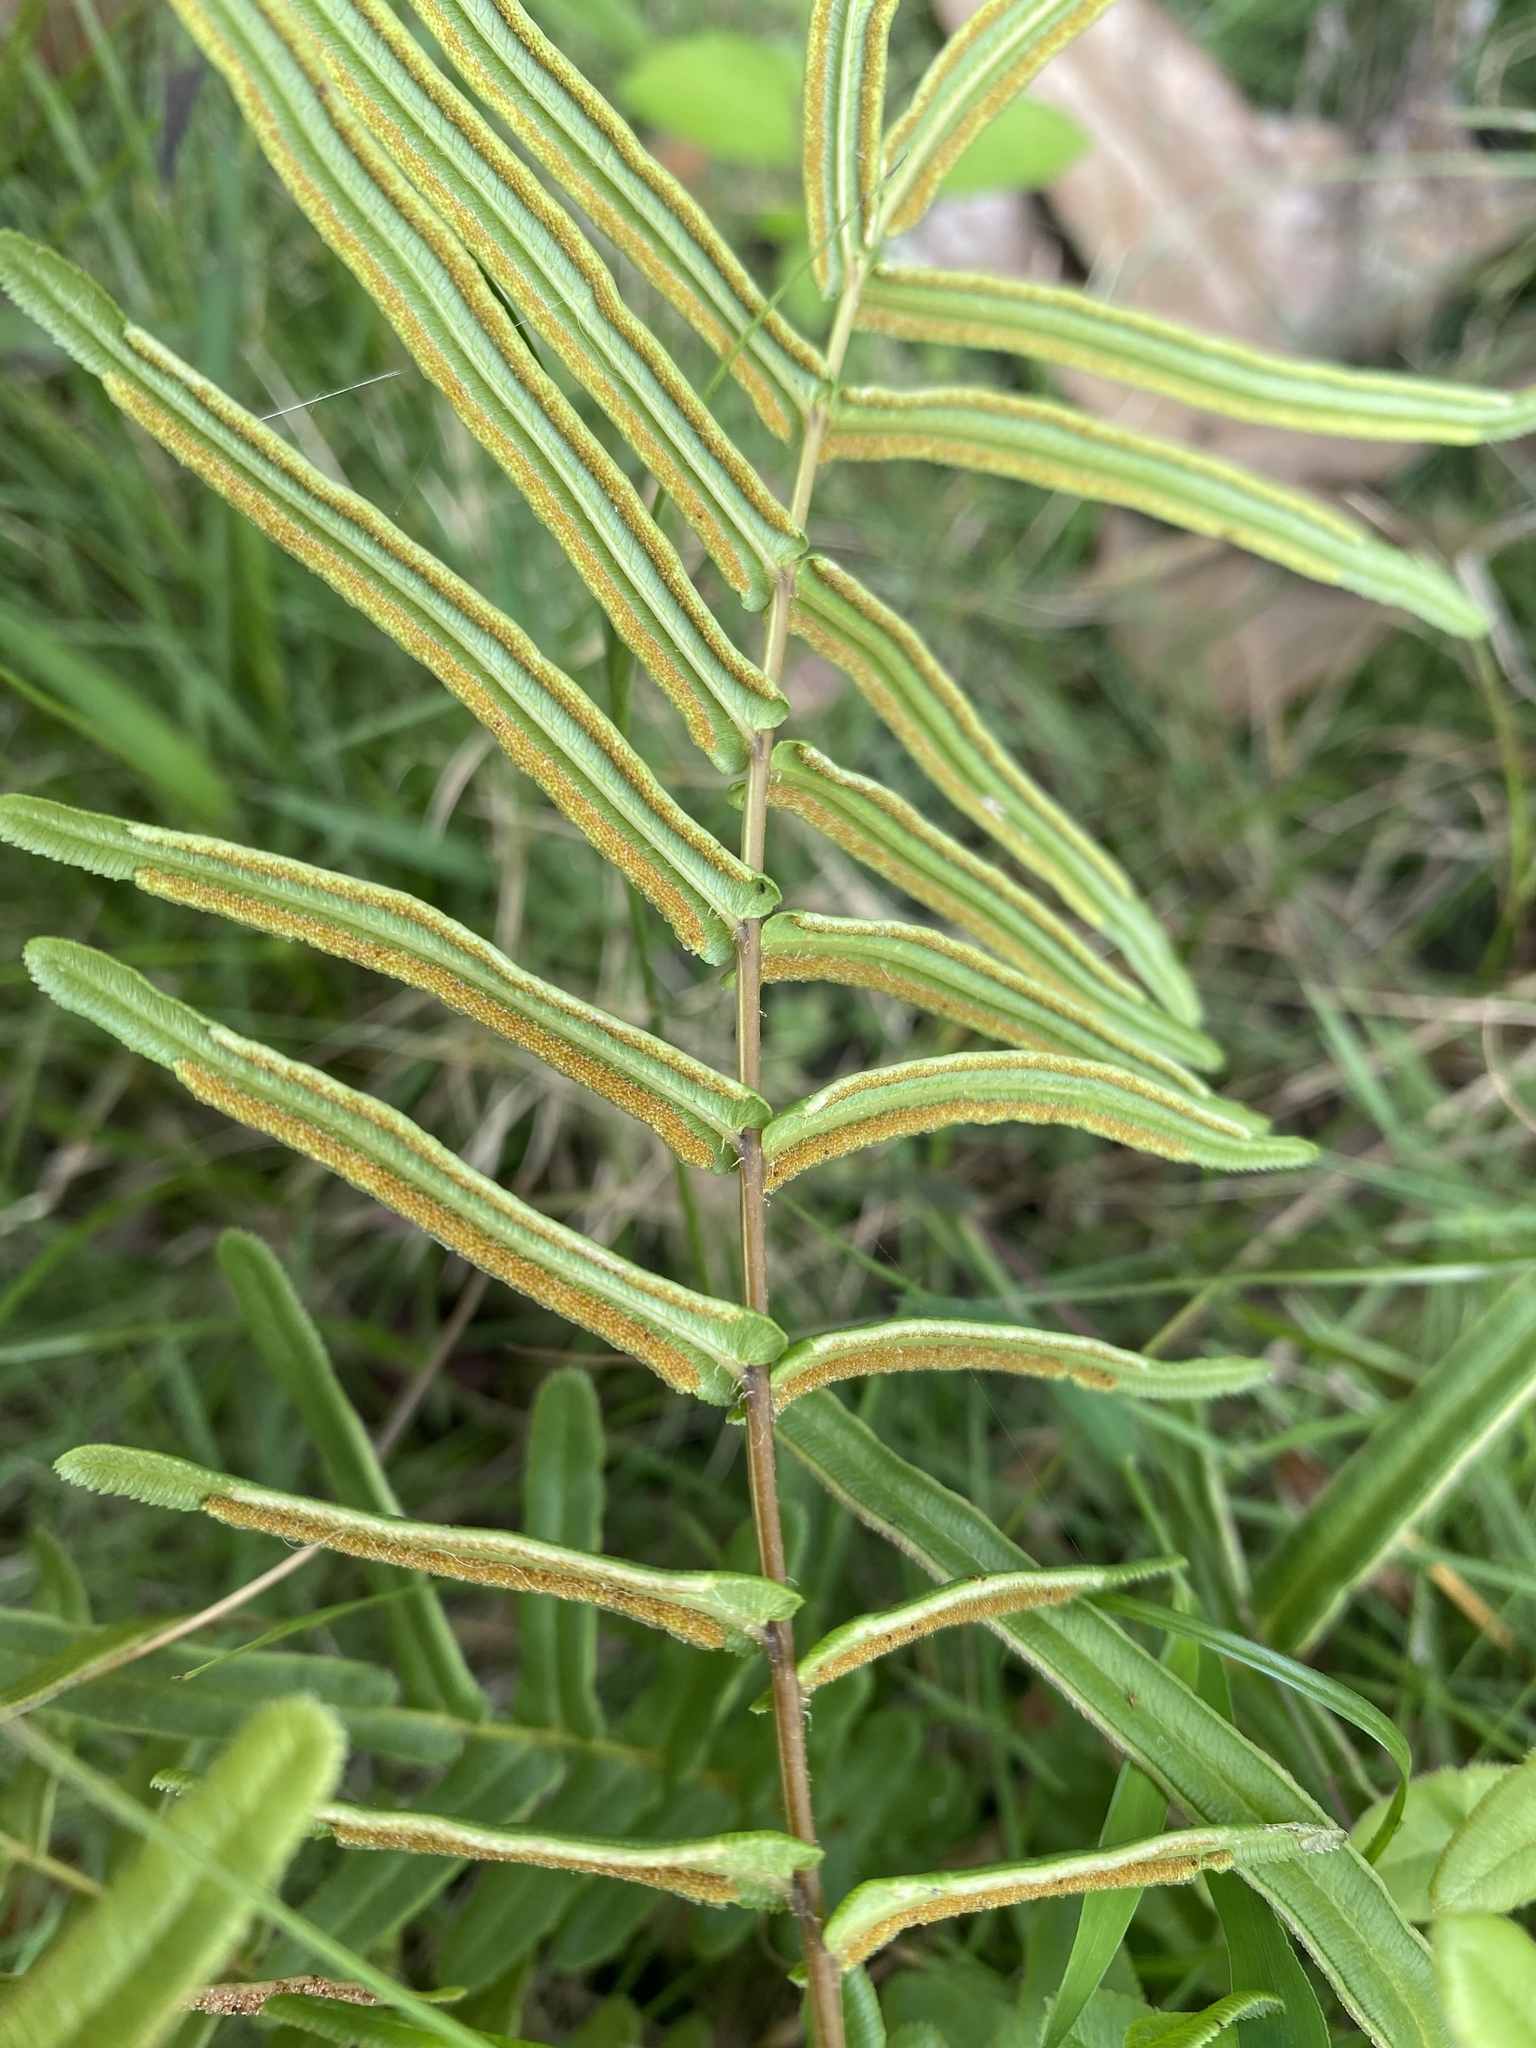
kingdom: Plantae
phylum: Tracheophyta
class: Polypodiopsida
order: Polypodiales
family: Pteridaceae
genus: Pteris
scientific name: Pteris vittata
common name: Ladder brake
